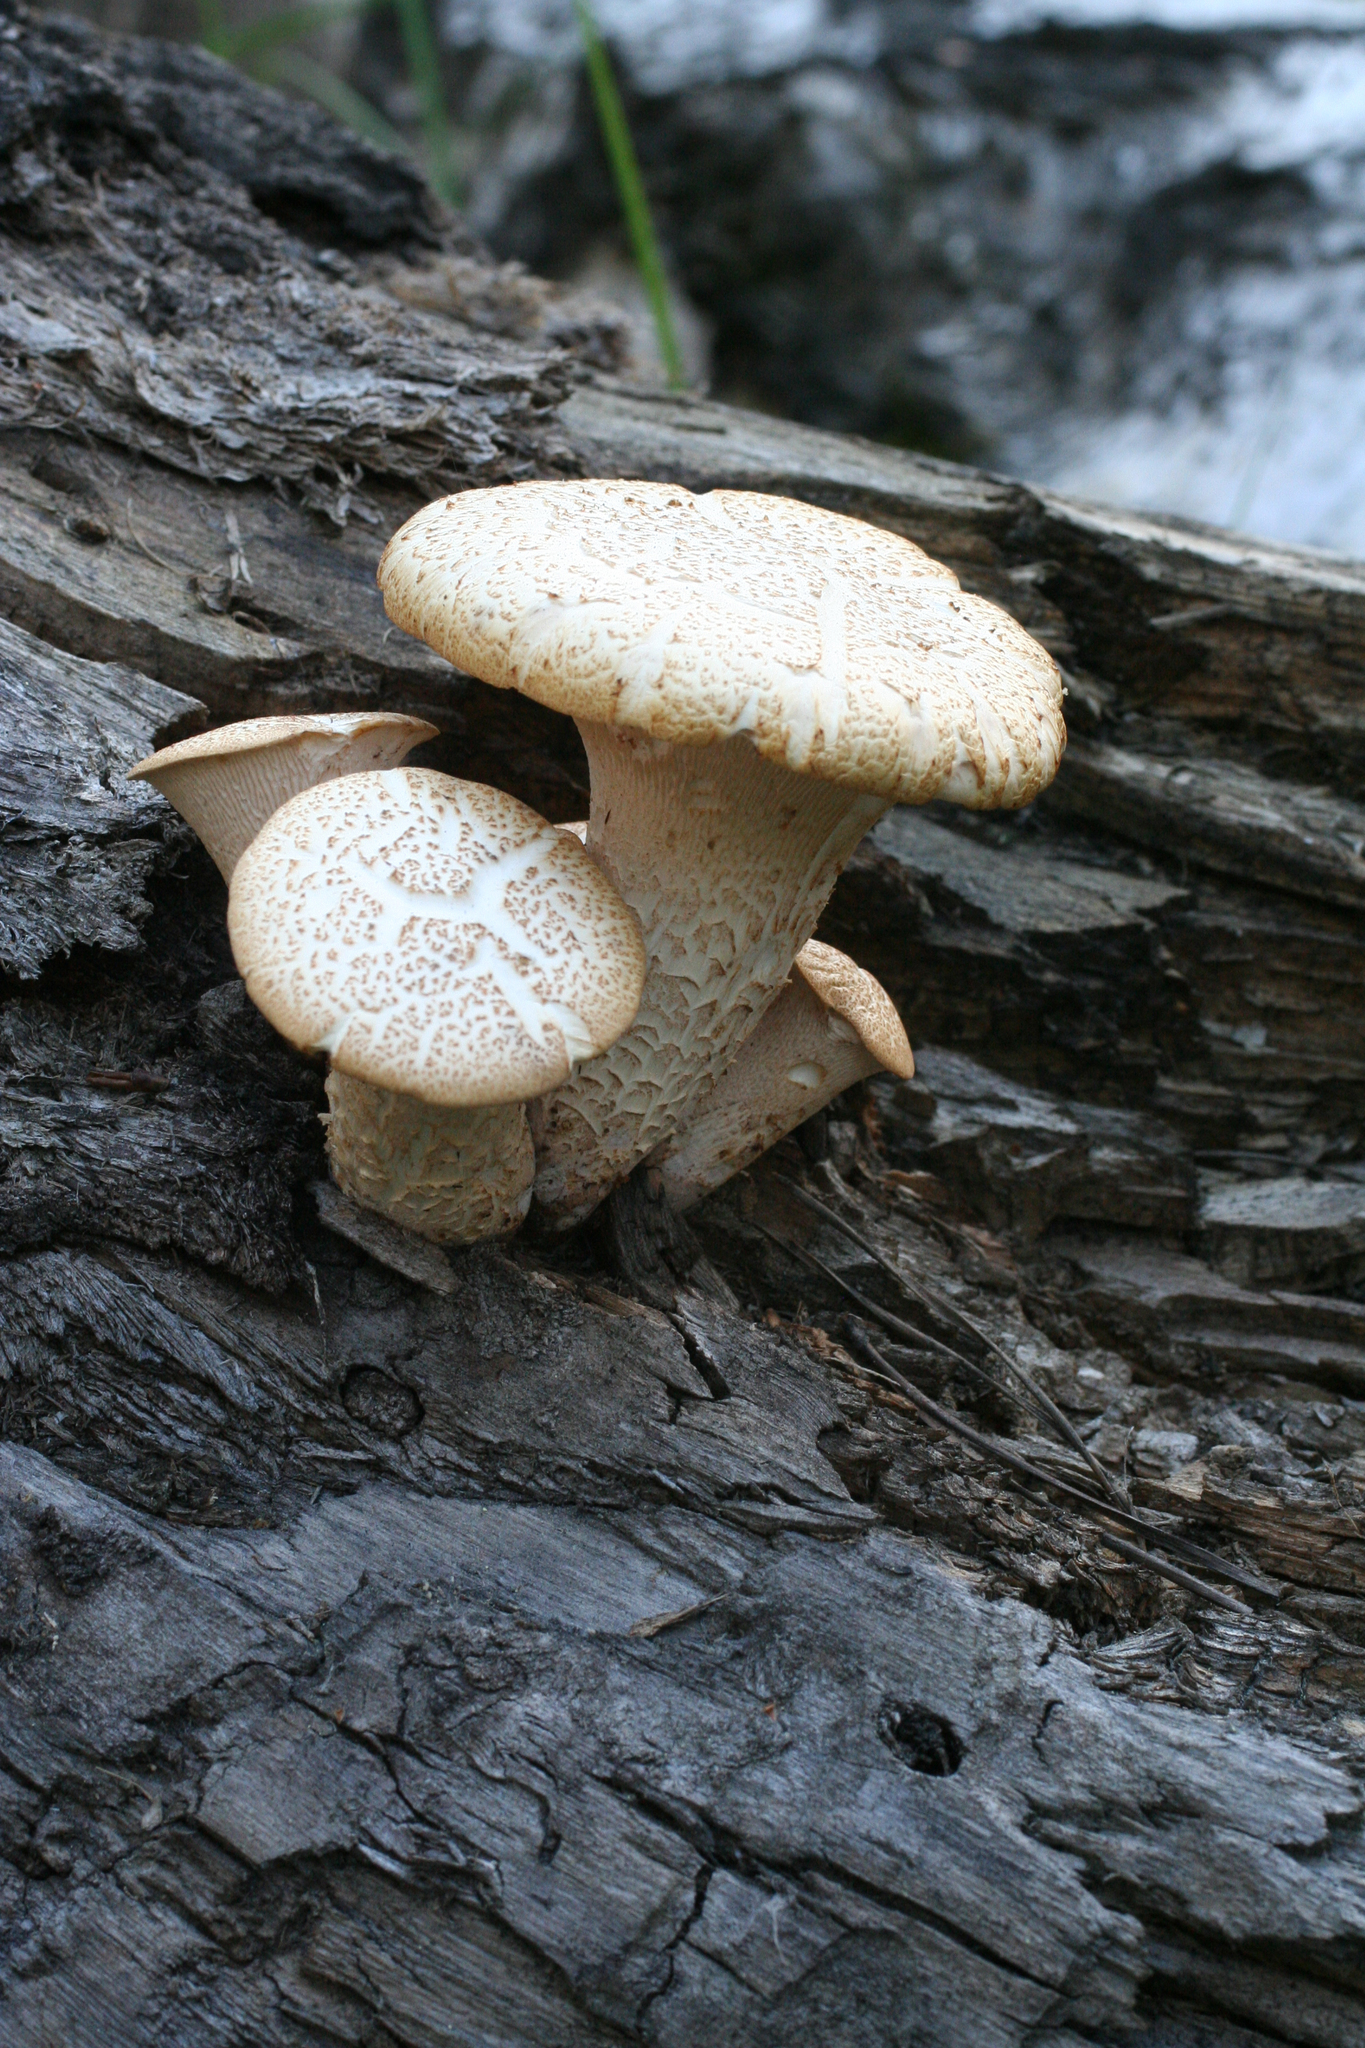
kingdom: Fungi
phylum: Basidiomycota
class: Agaricomycetes
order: Gloeophyllales
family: Gloeophyllaceae
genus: Neolentinus
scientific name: Neolentinus lepideus
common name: Scaly sawgill
